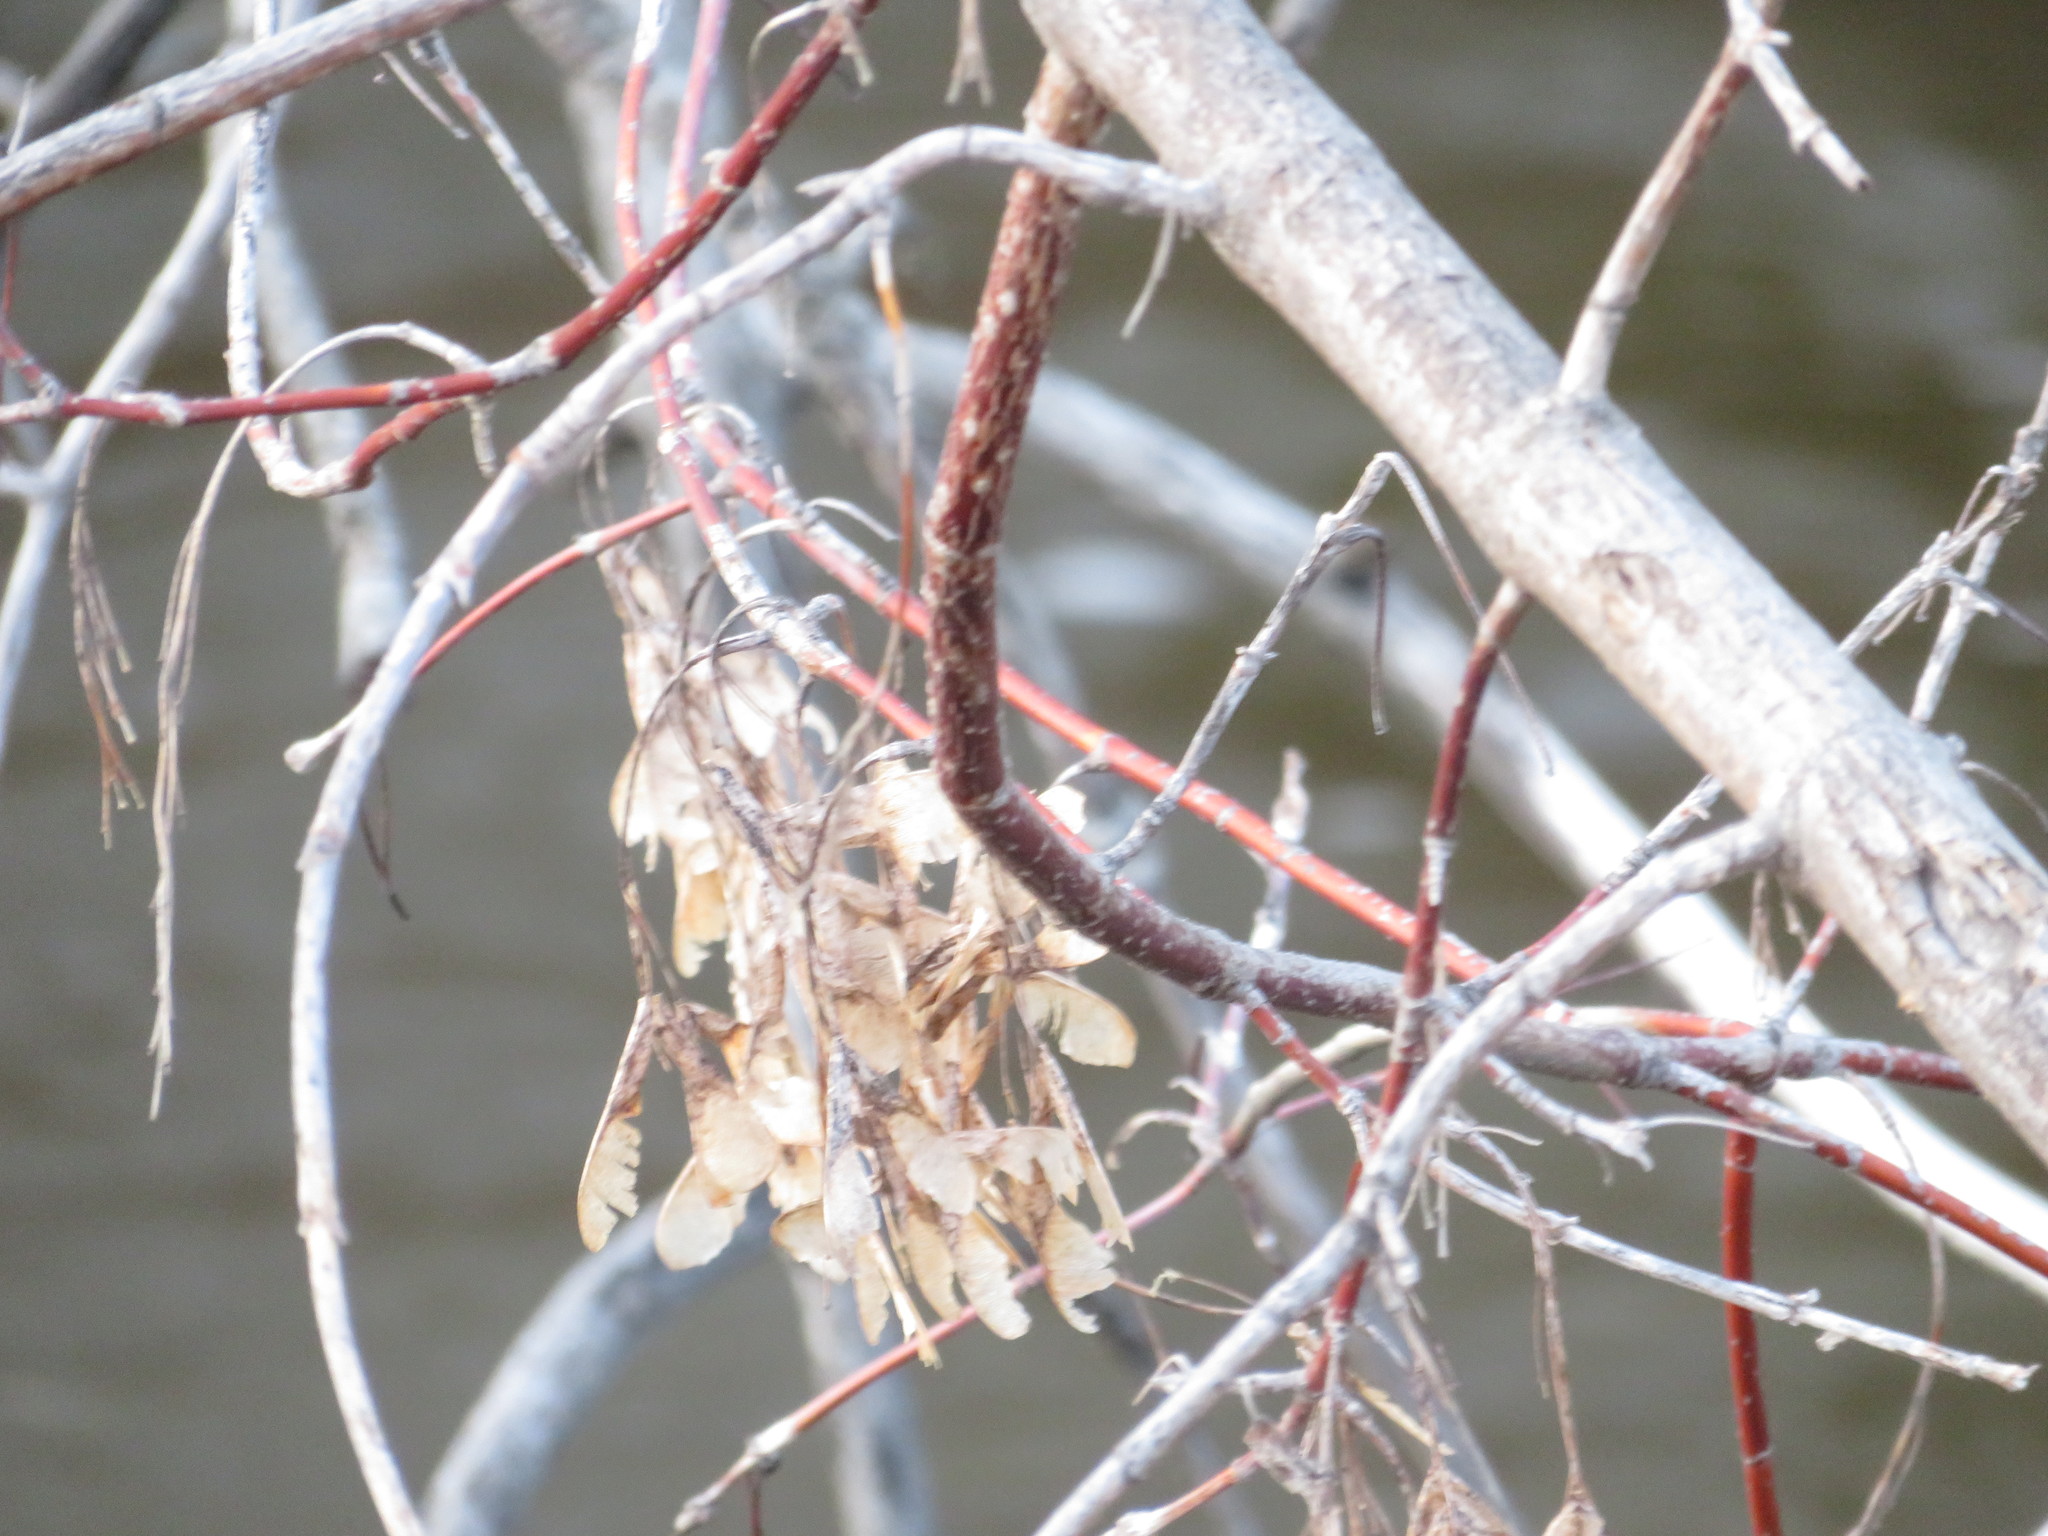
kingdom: Plantae
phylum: Tracheophyta
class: Magnoliopsida
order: Sapindales
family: Sapindaceae
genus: Acer
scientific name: Acer negundo
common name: Ashleaf maple
